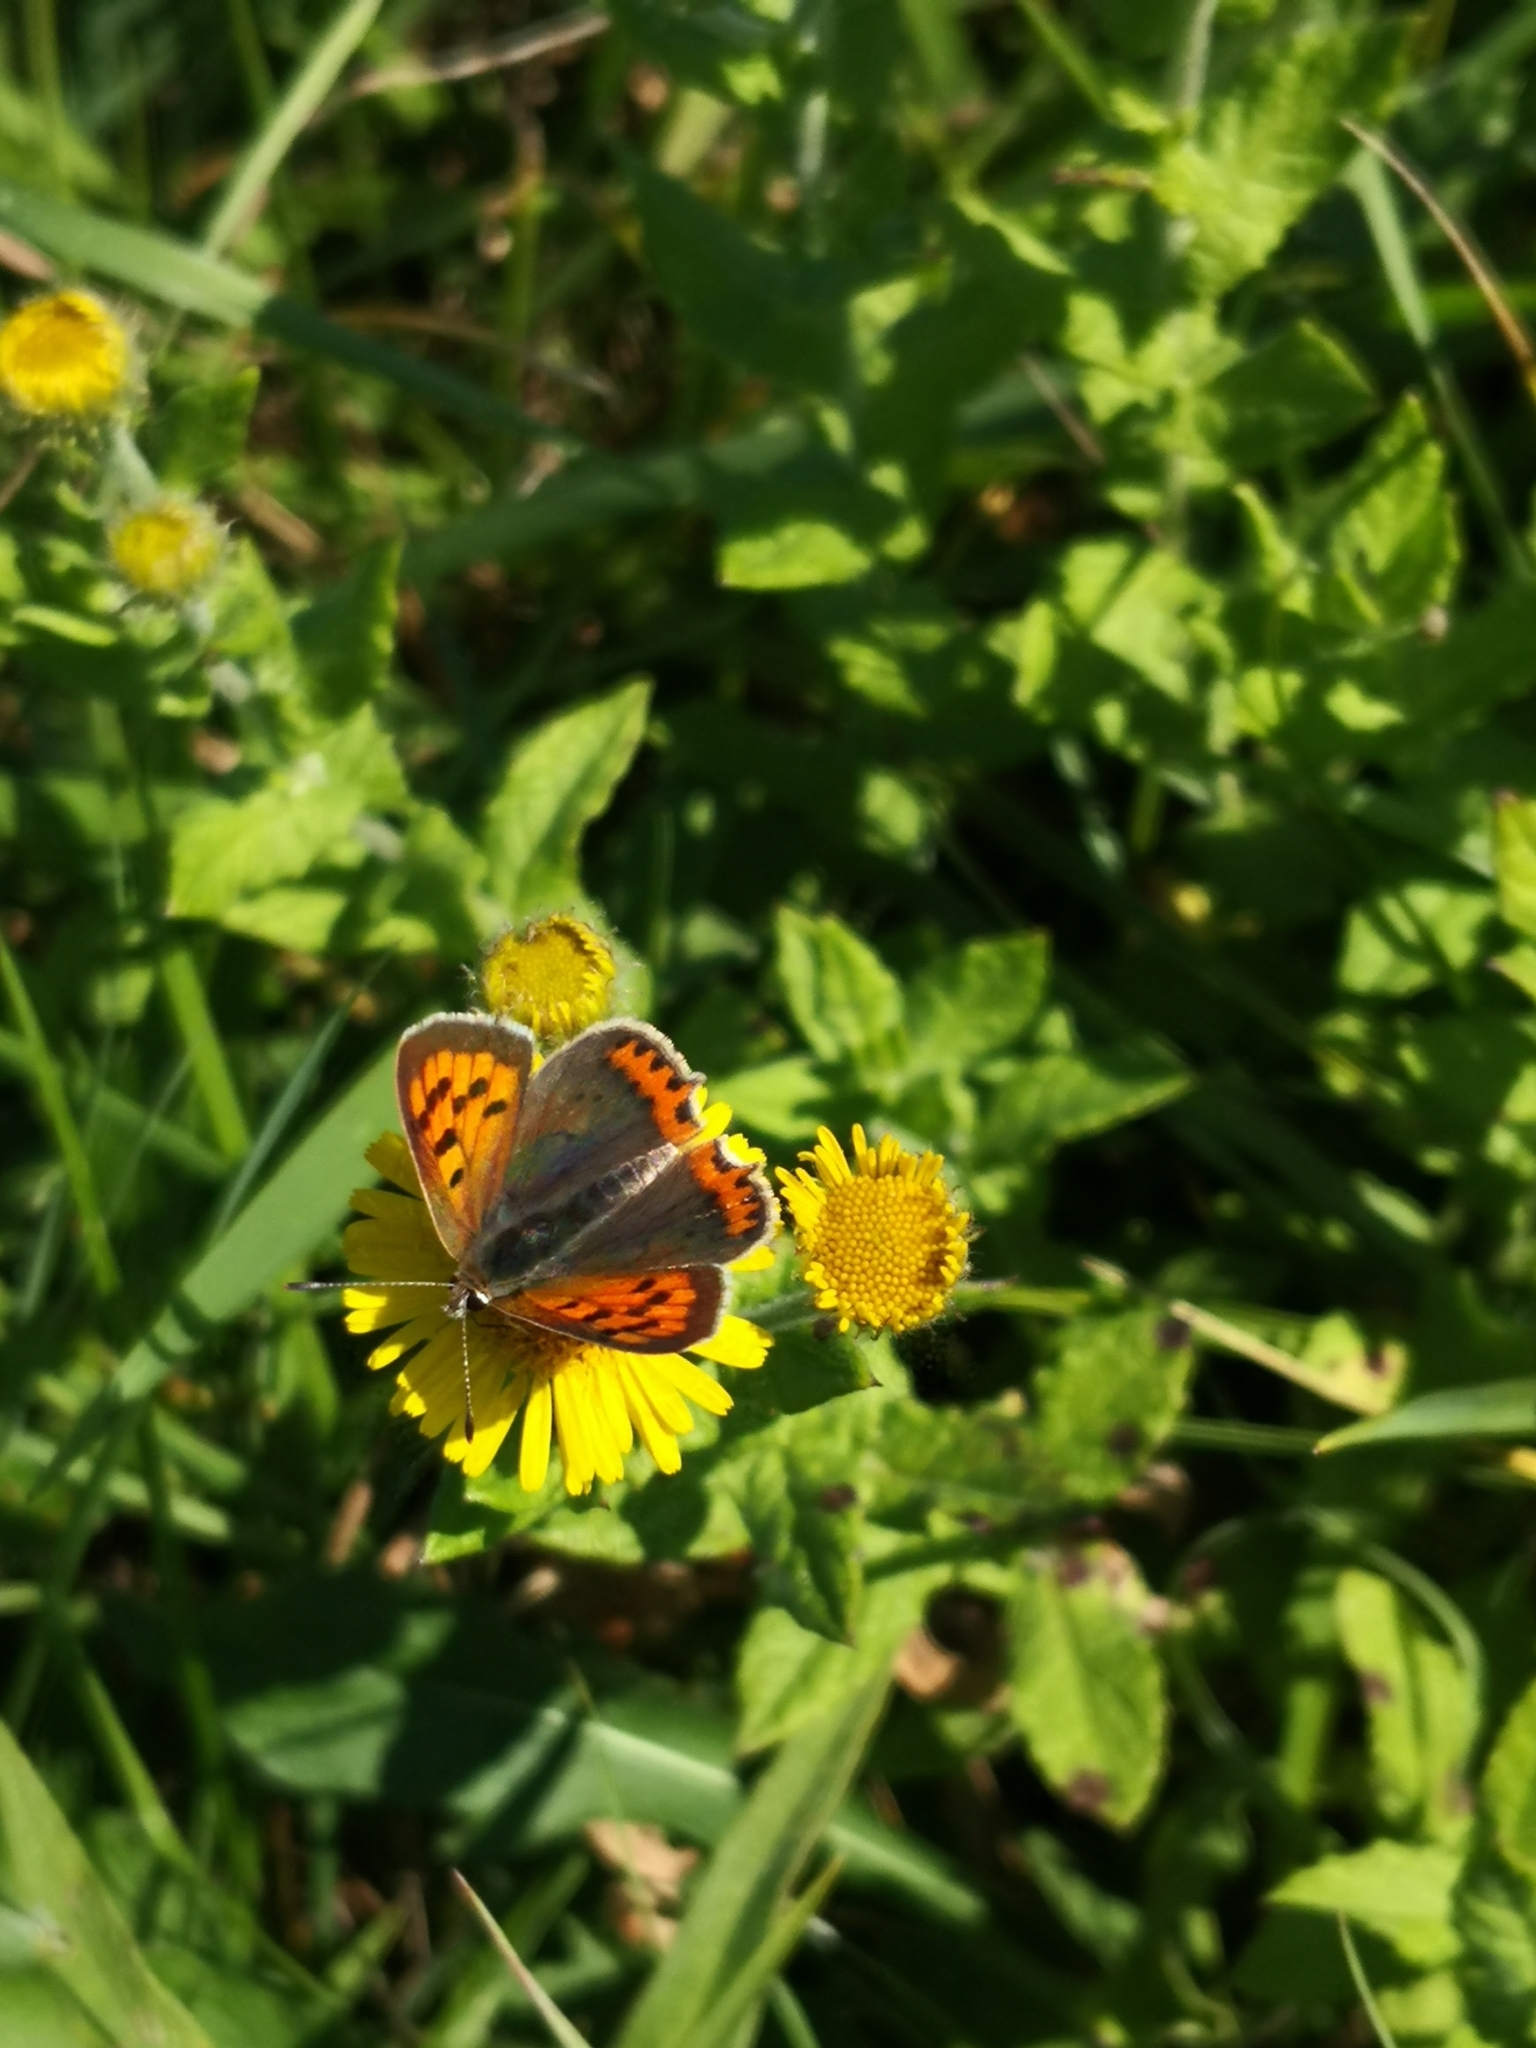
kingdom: Animalia
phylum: Arthropoda
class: Insecta
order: Lepidoptera
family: Lycaenidae
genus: Lycaena
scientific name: Lycaena phlaeas
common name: Small copper
